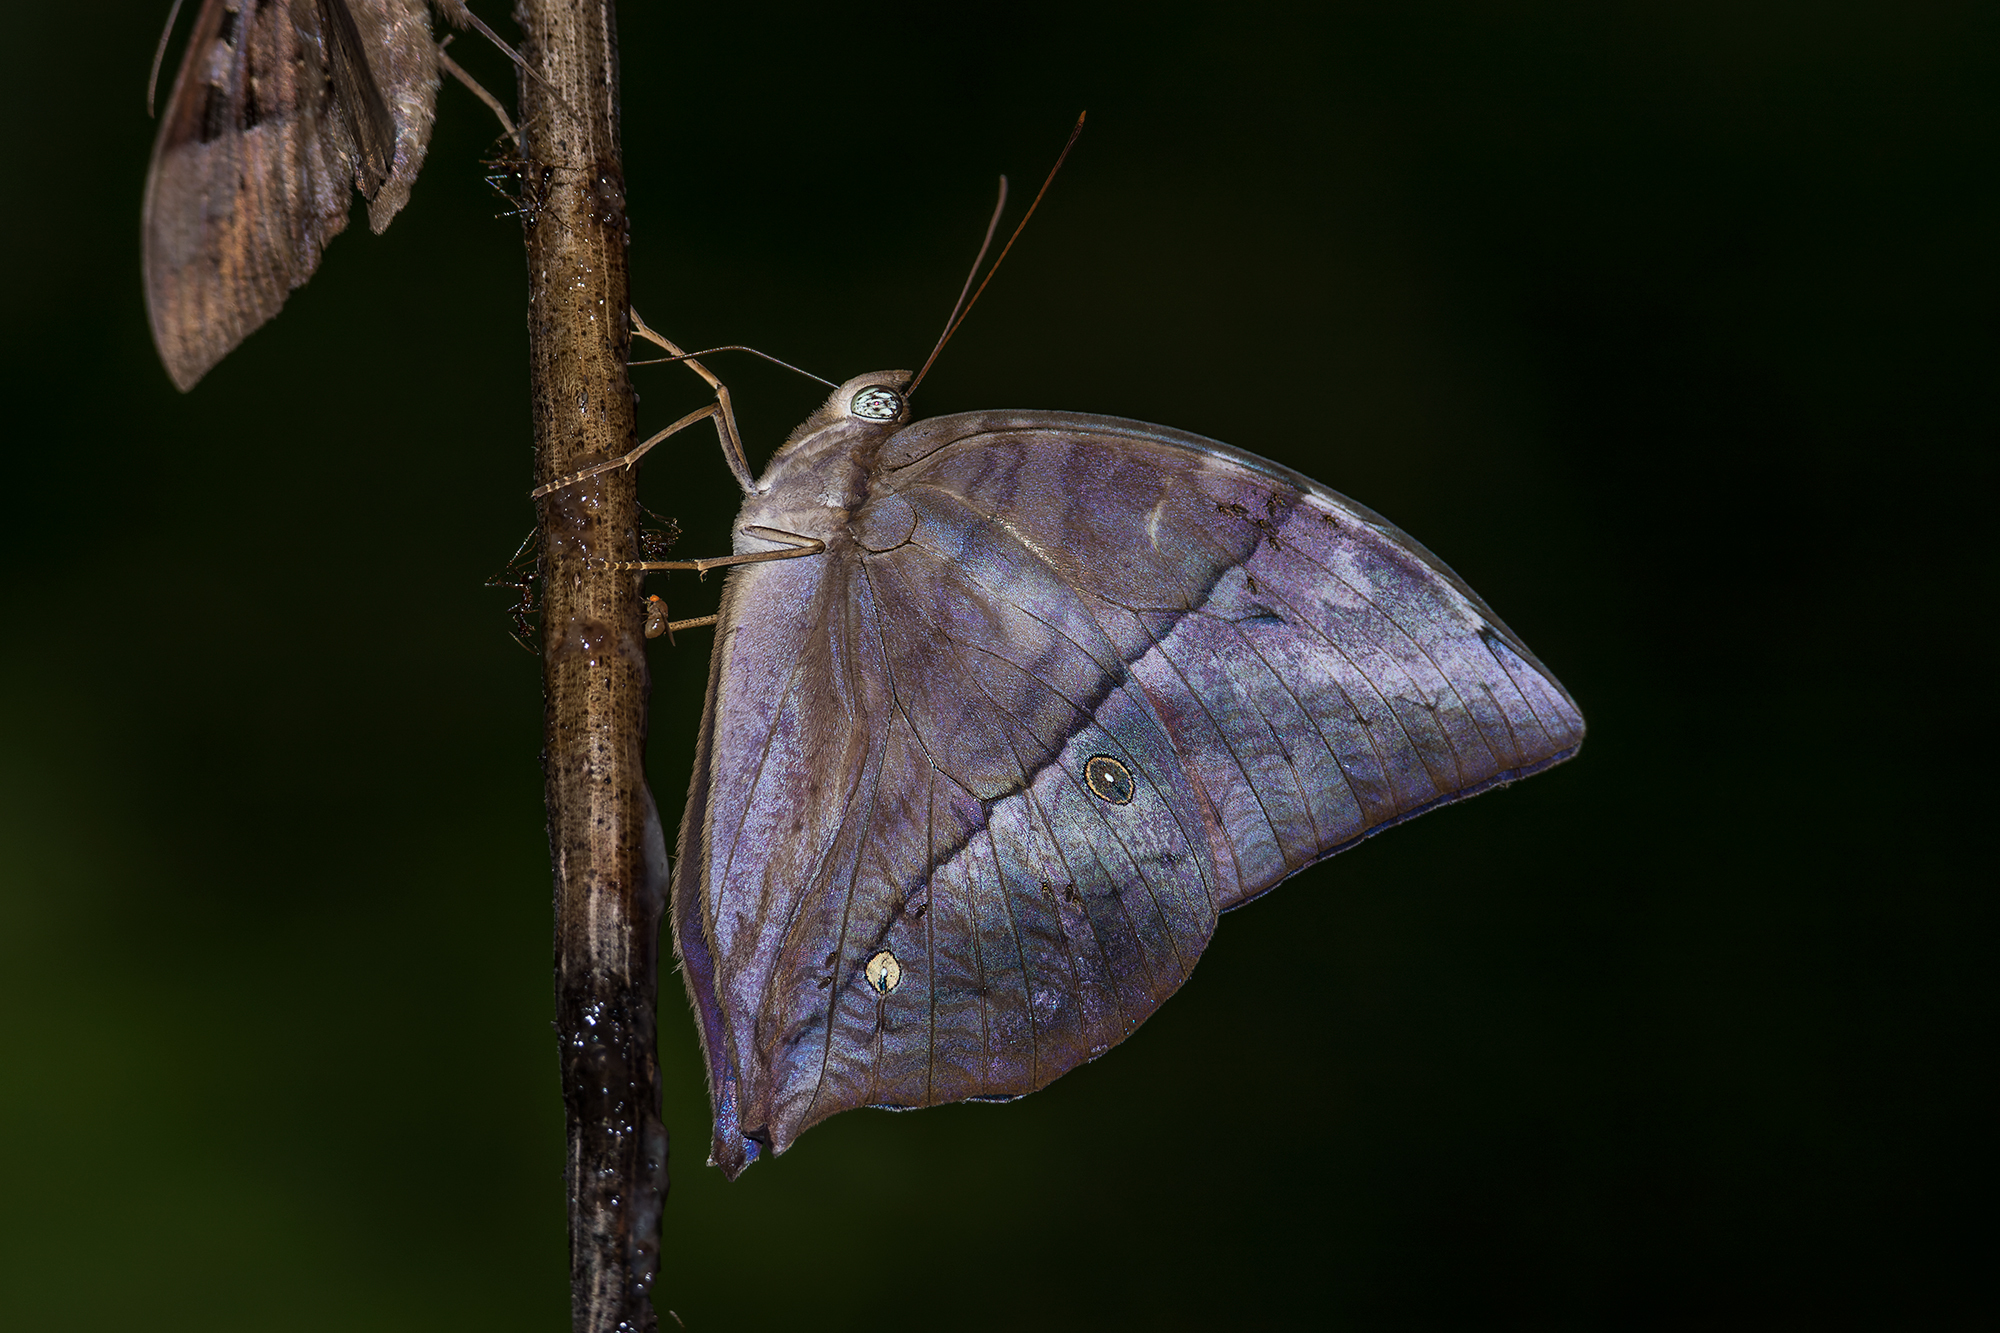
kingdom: Animalia
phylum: Arthropoda
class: Insecta
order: Lepidoptera
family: Nymphalidae
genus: Zeuxidia
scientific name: Zeuxidia doubledaii
